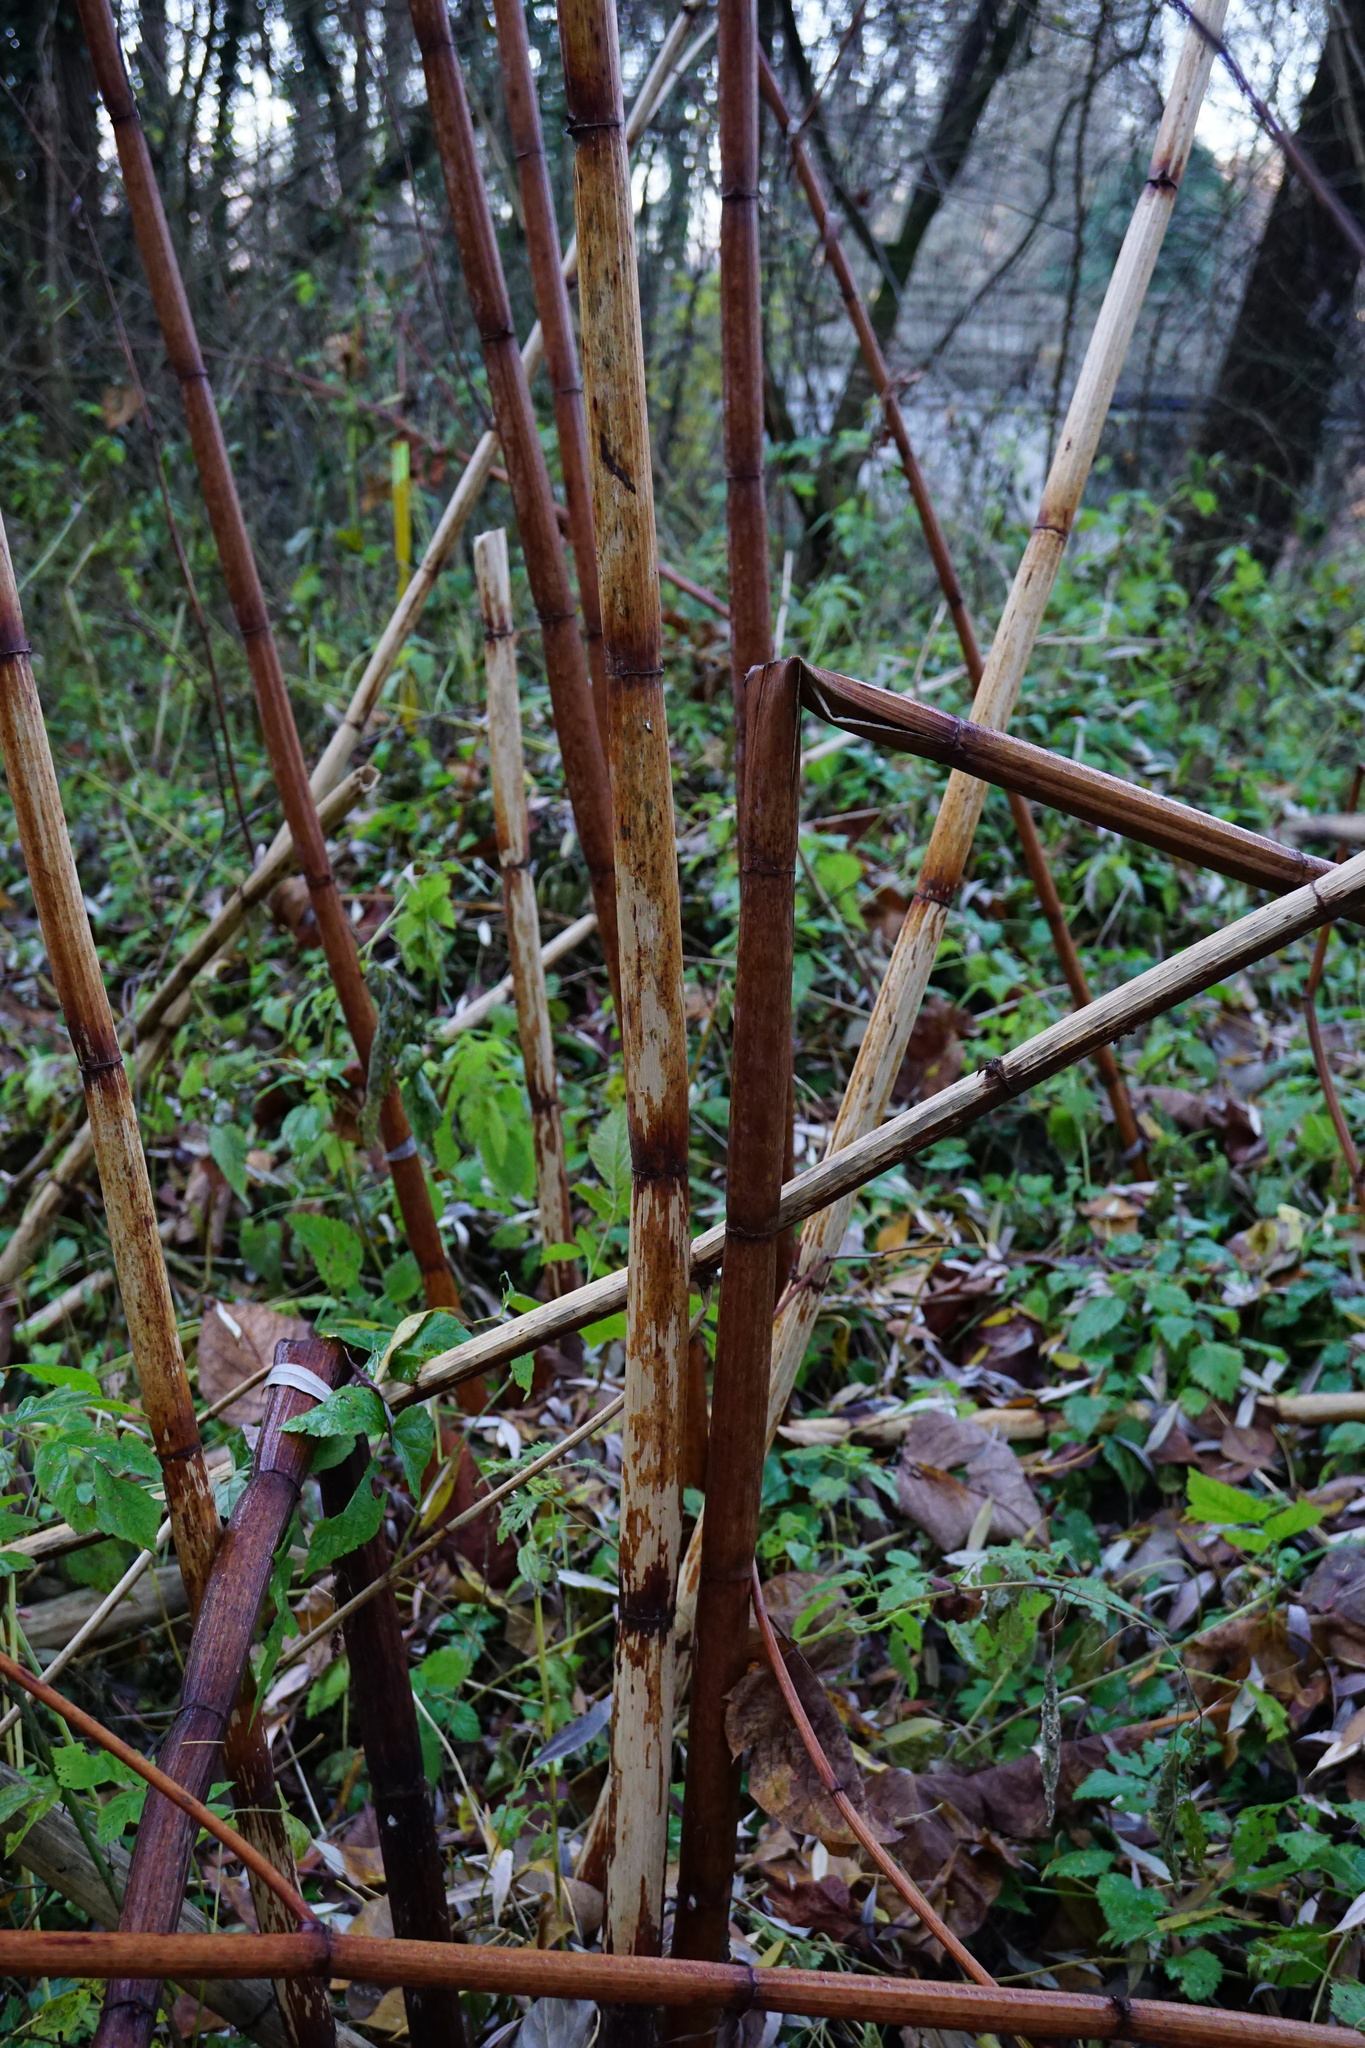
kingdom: Plantae
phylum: Tracheophyta
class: Magnoliopsida
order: Caryophyllales
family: Polygonaceae
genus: Reynoutria
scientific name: Reynoutria bohemica
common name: Bohemian knotweed
